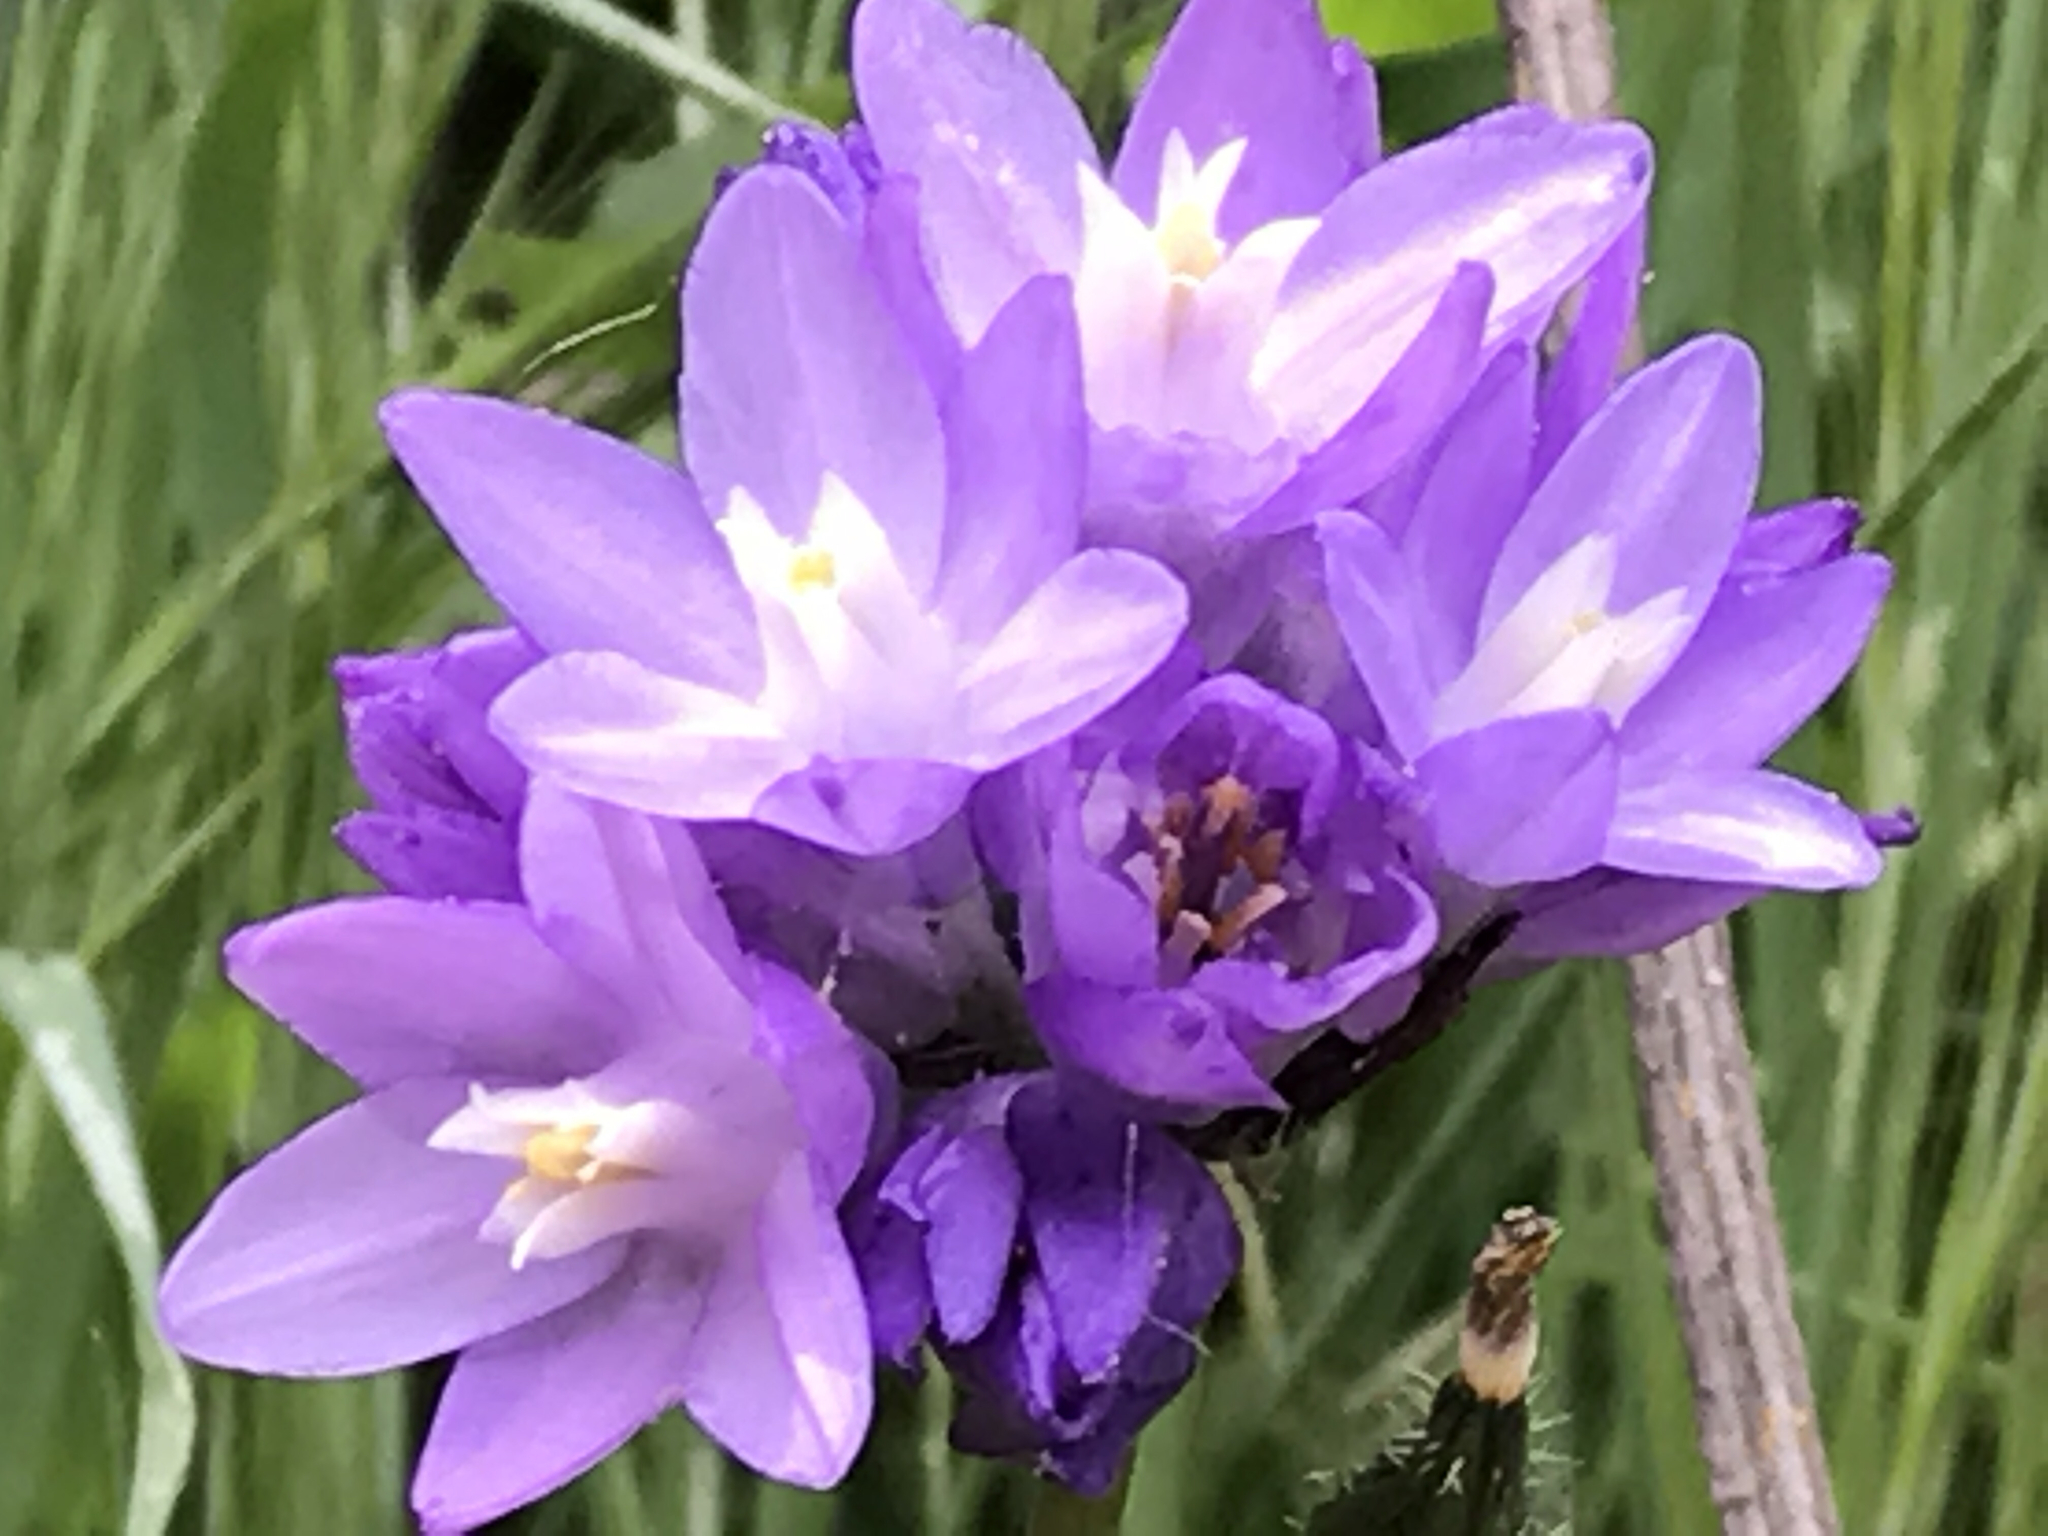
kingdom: Plantae
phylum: Tracheophyta
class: Liliopsida
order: Asparagales
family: Asparagaceae
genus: Dipterostemon
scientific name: Dipterostemon capitatus
